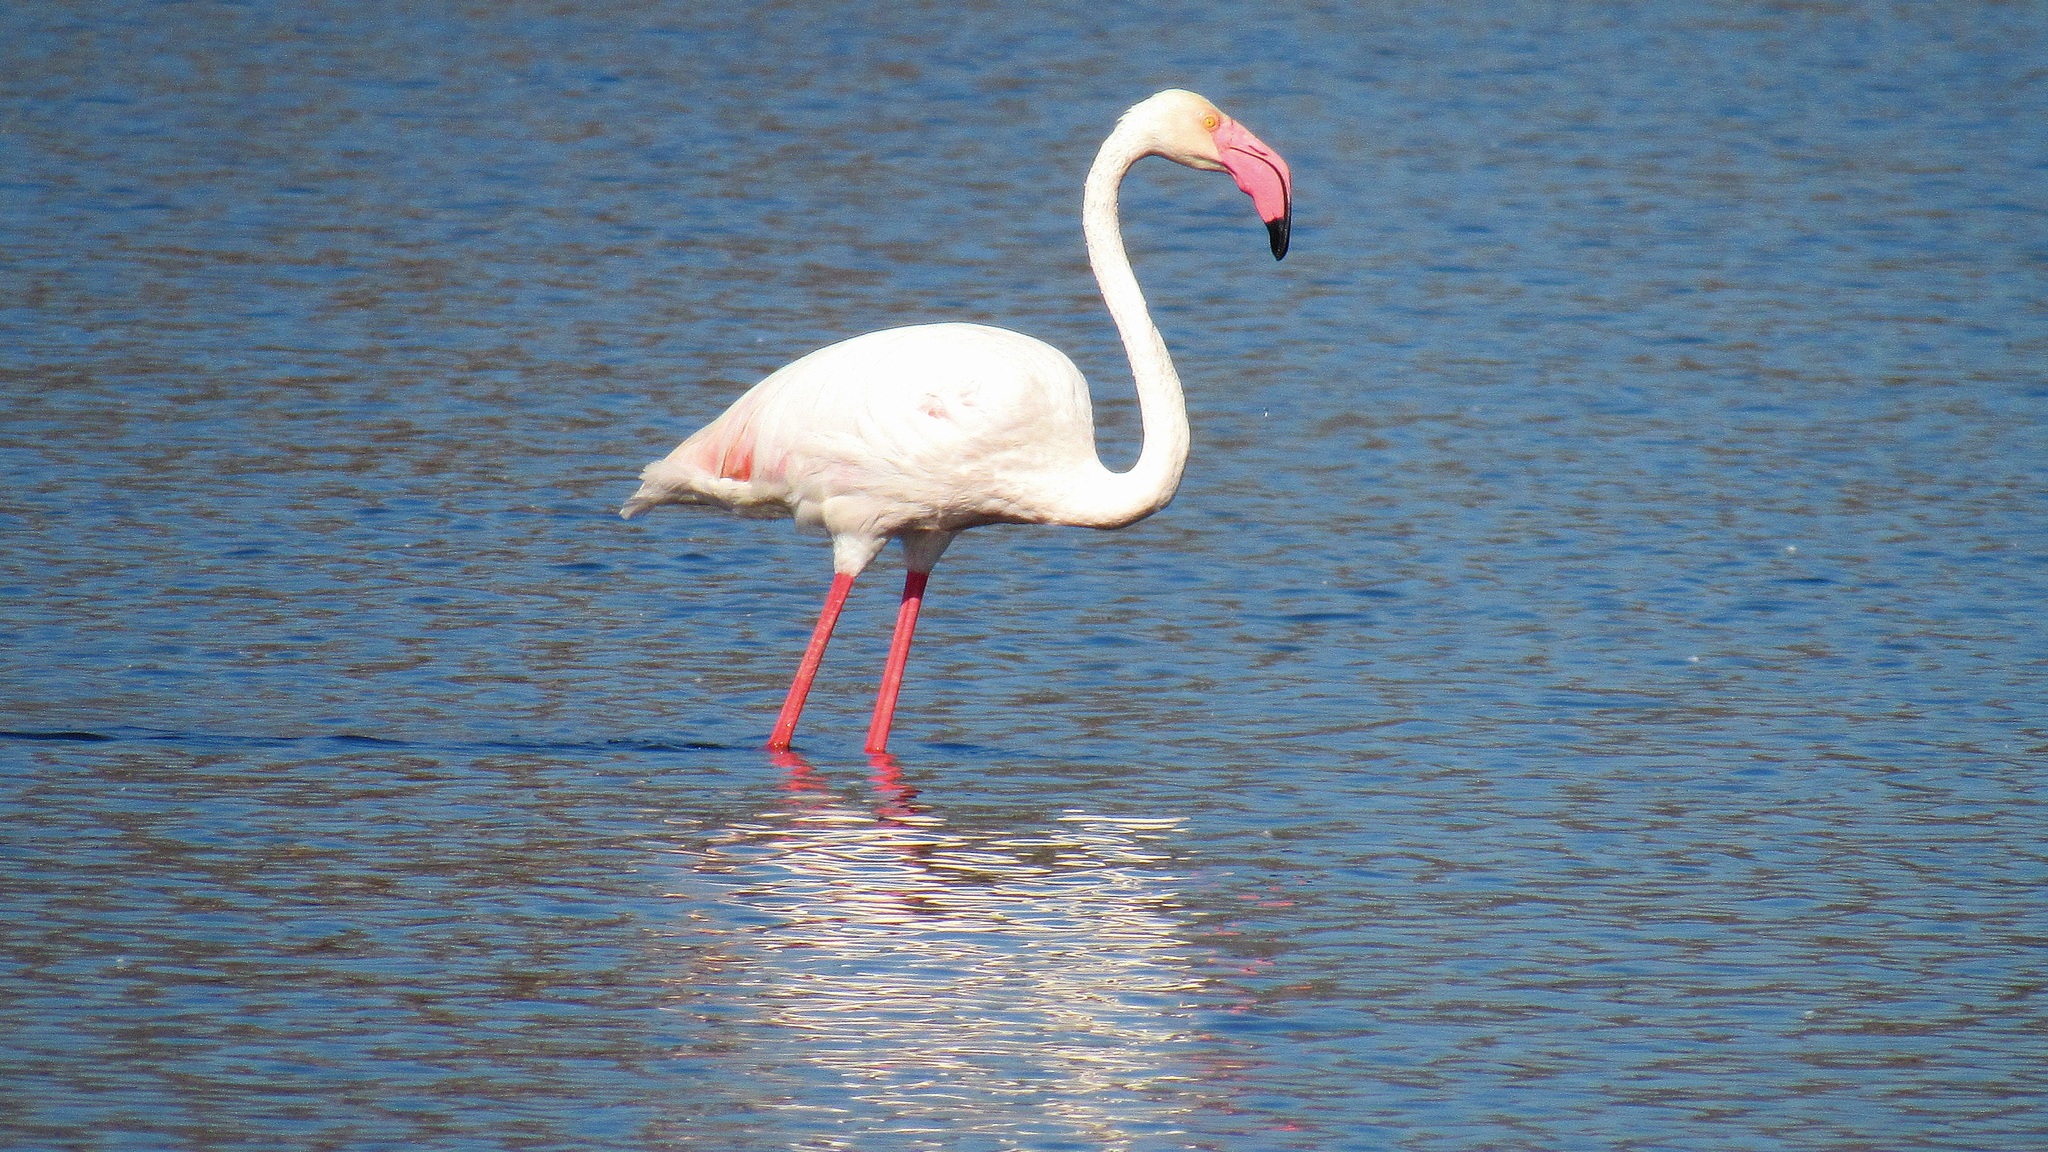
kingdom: Animalia
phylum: Chordata
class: Aves
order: Phoenicopteriformes
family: Phoenicopteridae
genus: Phoenicopterus
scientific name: Phoenicopterus roseus
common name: Greater flamingo
